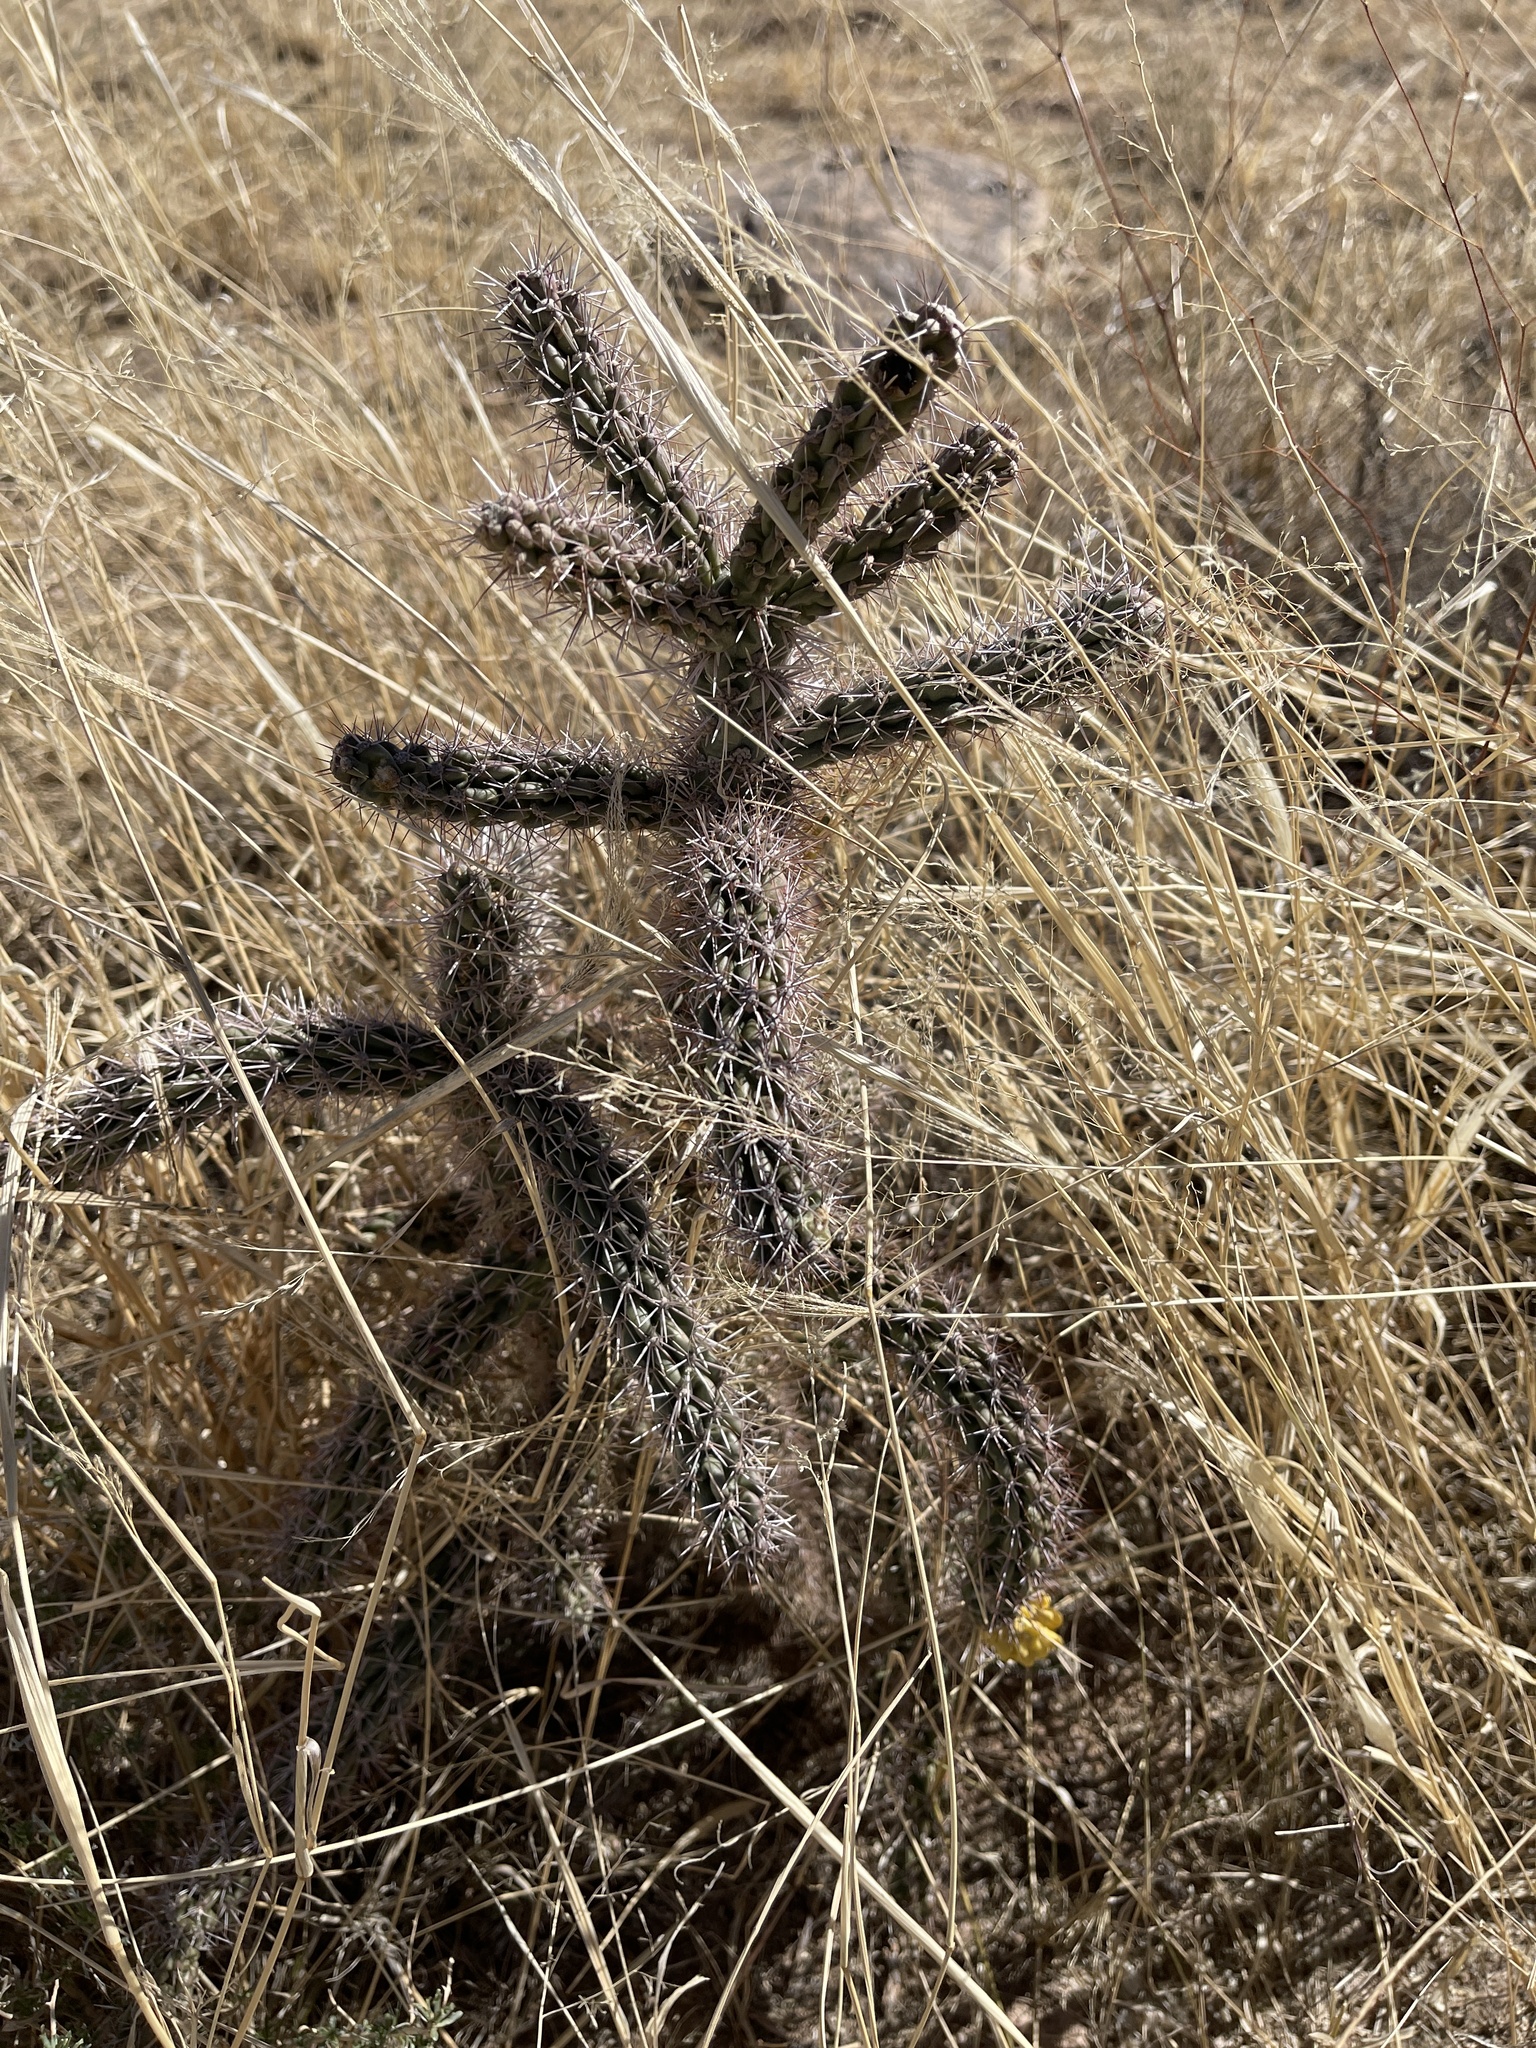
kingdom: Plantae
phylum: Tracheophyta
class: Magnoliopsida
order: Caryophyllales
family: Cactaceae
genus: Cylindropuntia
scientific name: Cylindropuntia imbricata
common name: Candelabrum cactus
